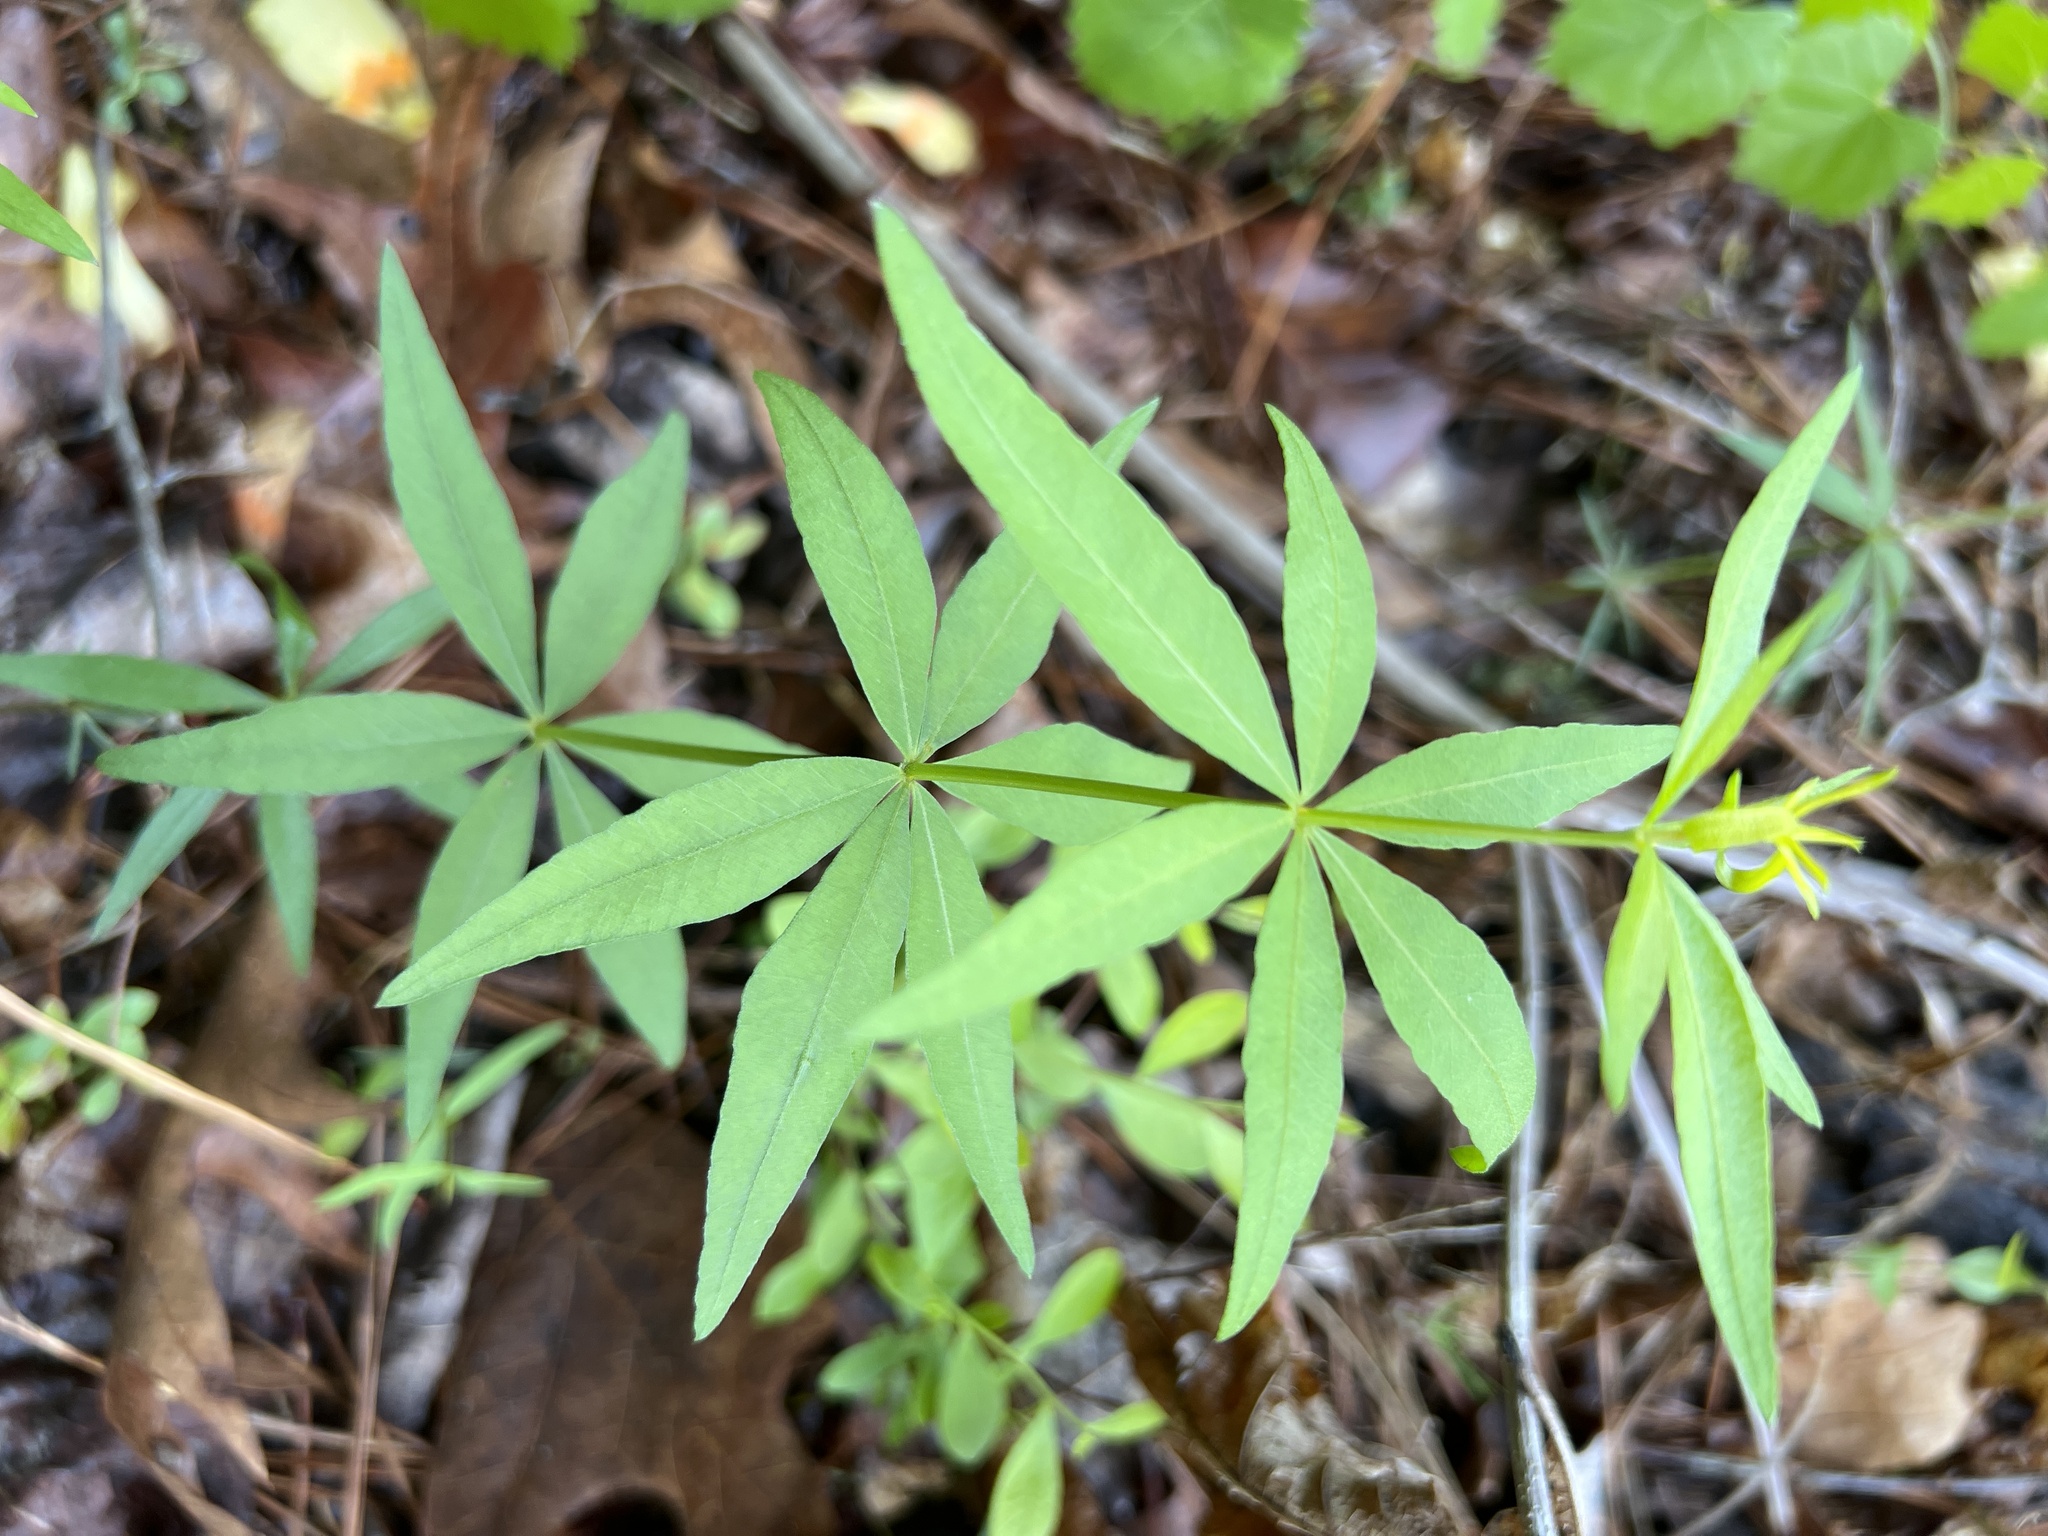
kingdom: Plantae
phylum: Tracheophyta
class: Magnoliopsida
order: Asterales
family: Asteraceae
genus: Coreopsis
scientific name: Coreopsis major
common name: Forest tickseed
